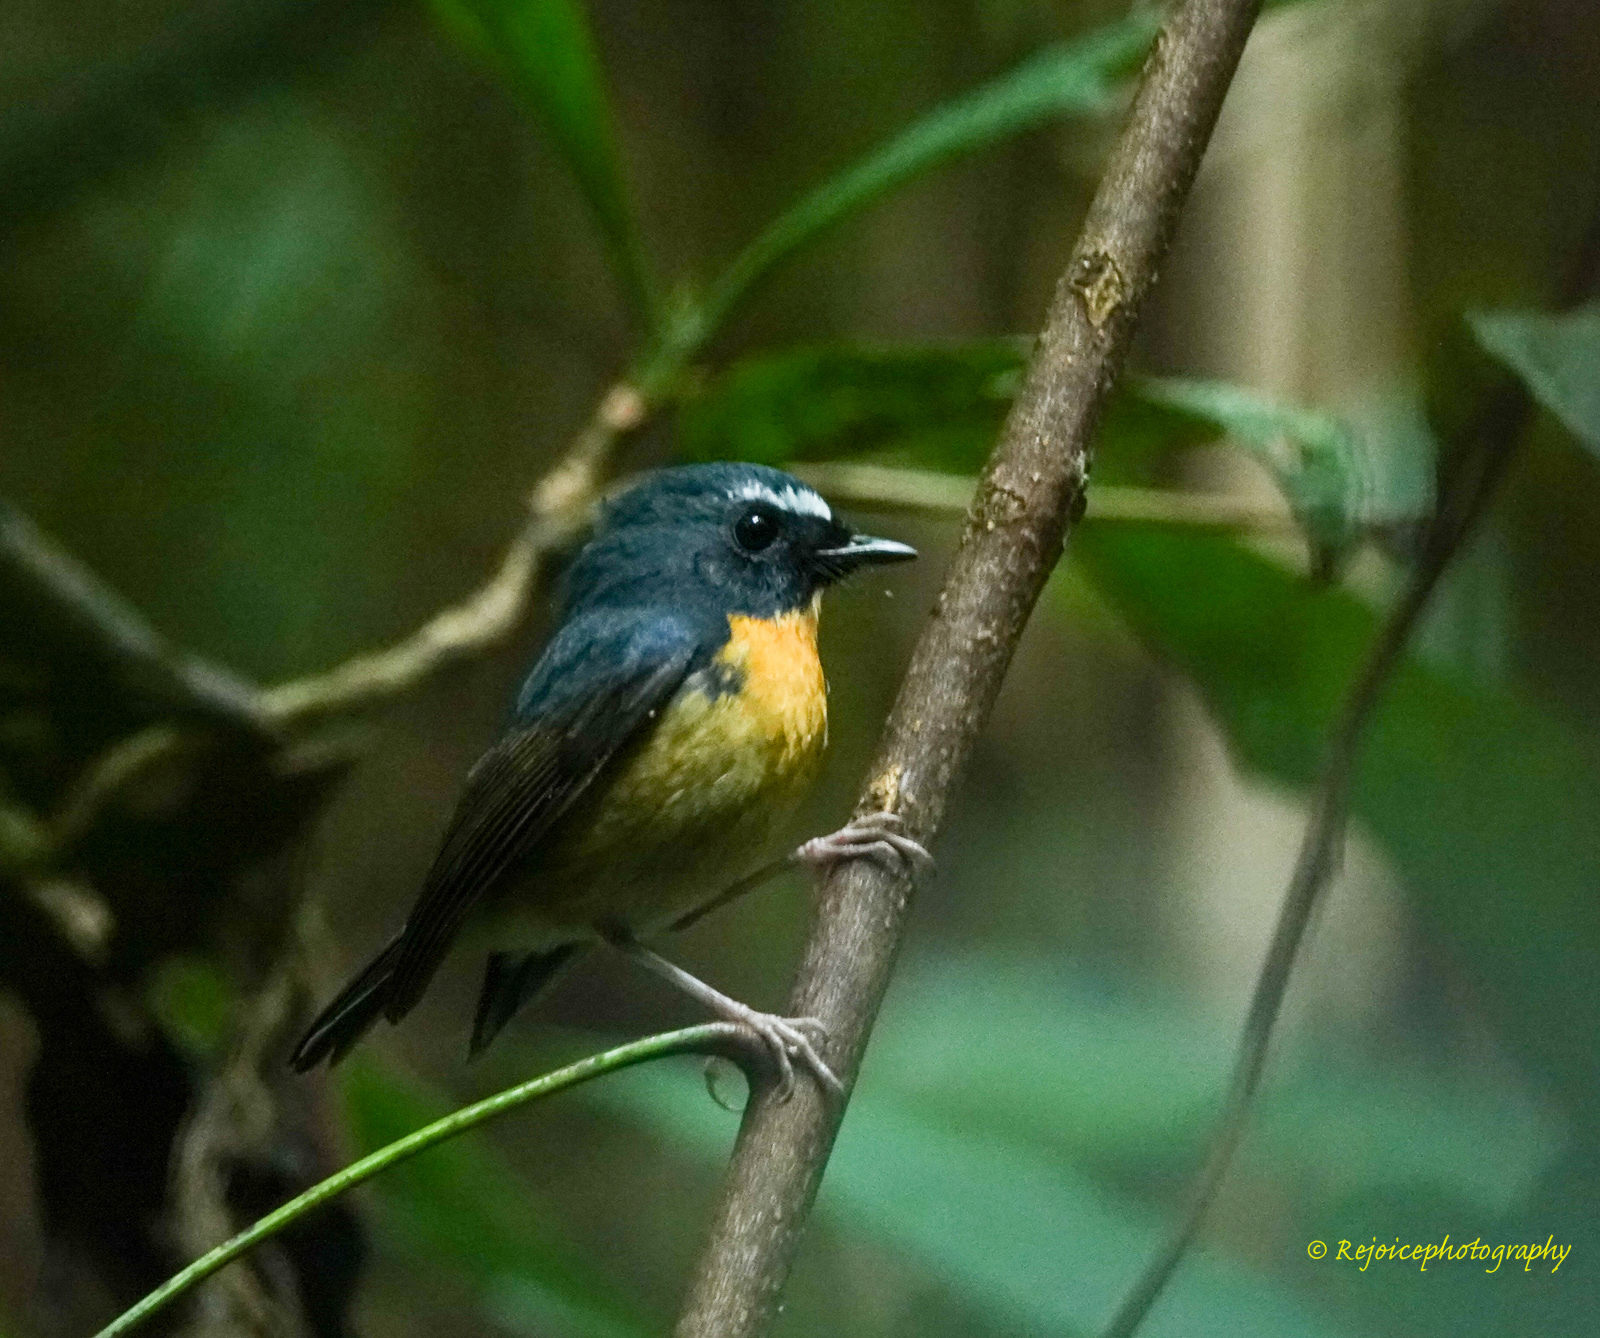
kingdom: Animalia
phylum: Chordata
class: Aves
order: Passeriformes
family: Muscicapidae
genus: Ficedula
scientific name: Ficedula hyperythra
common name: Snowy-browed flycatcher
